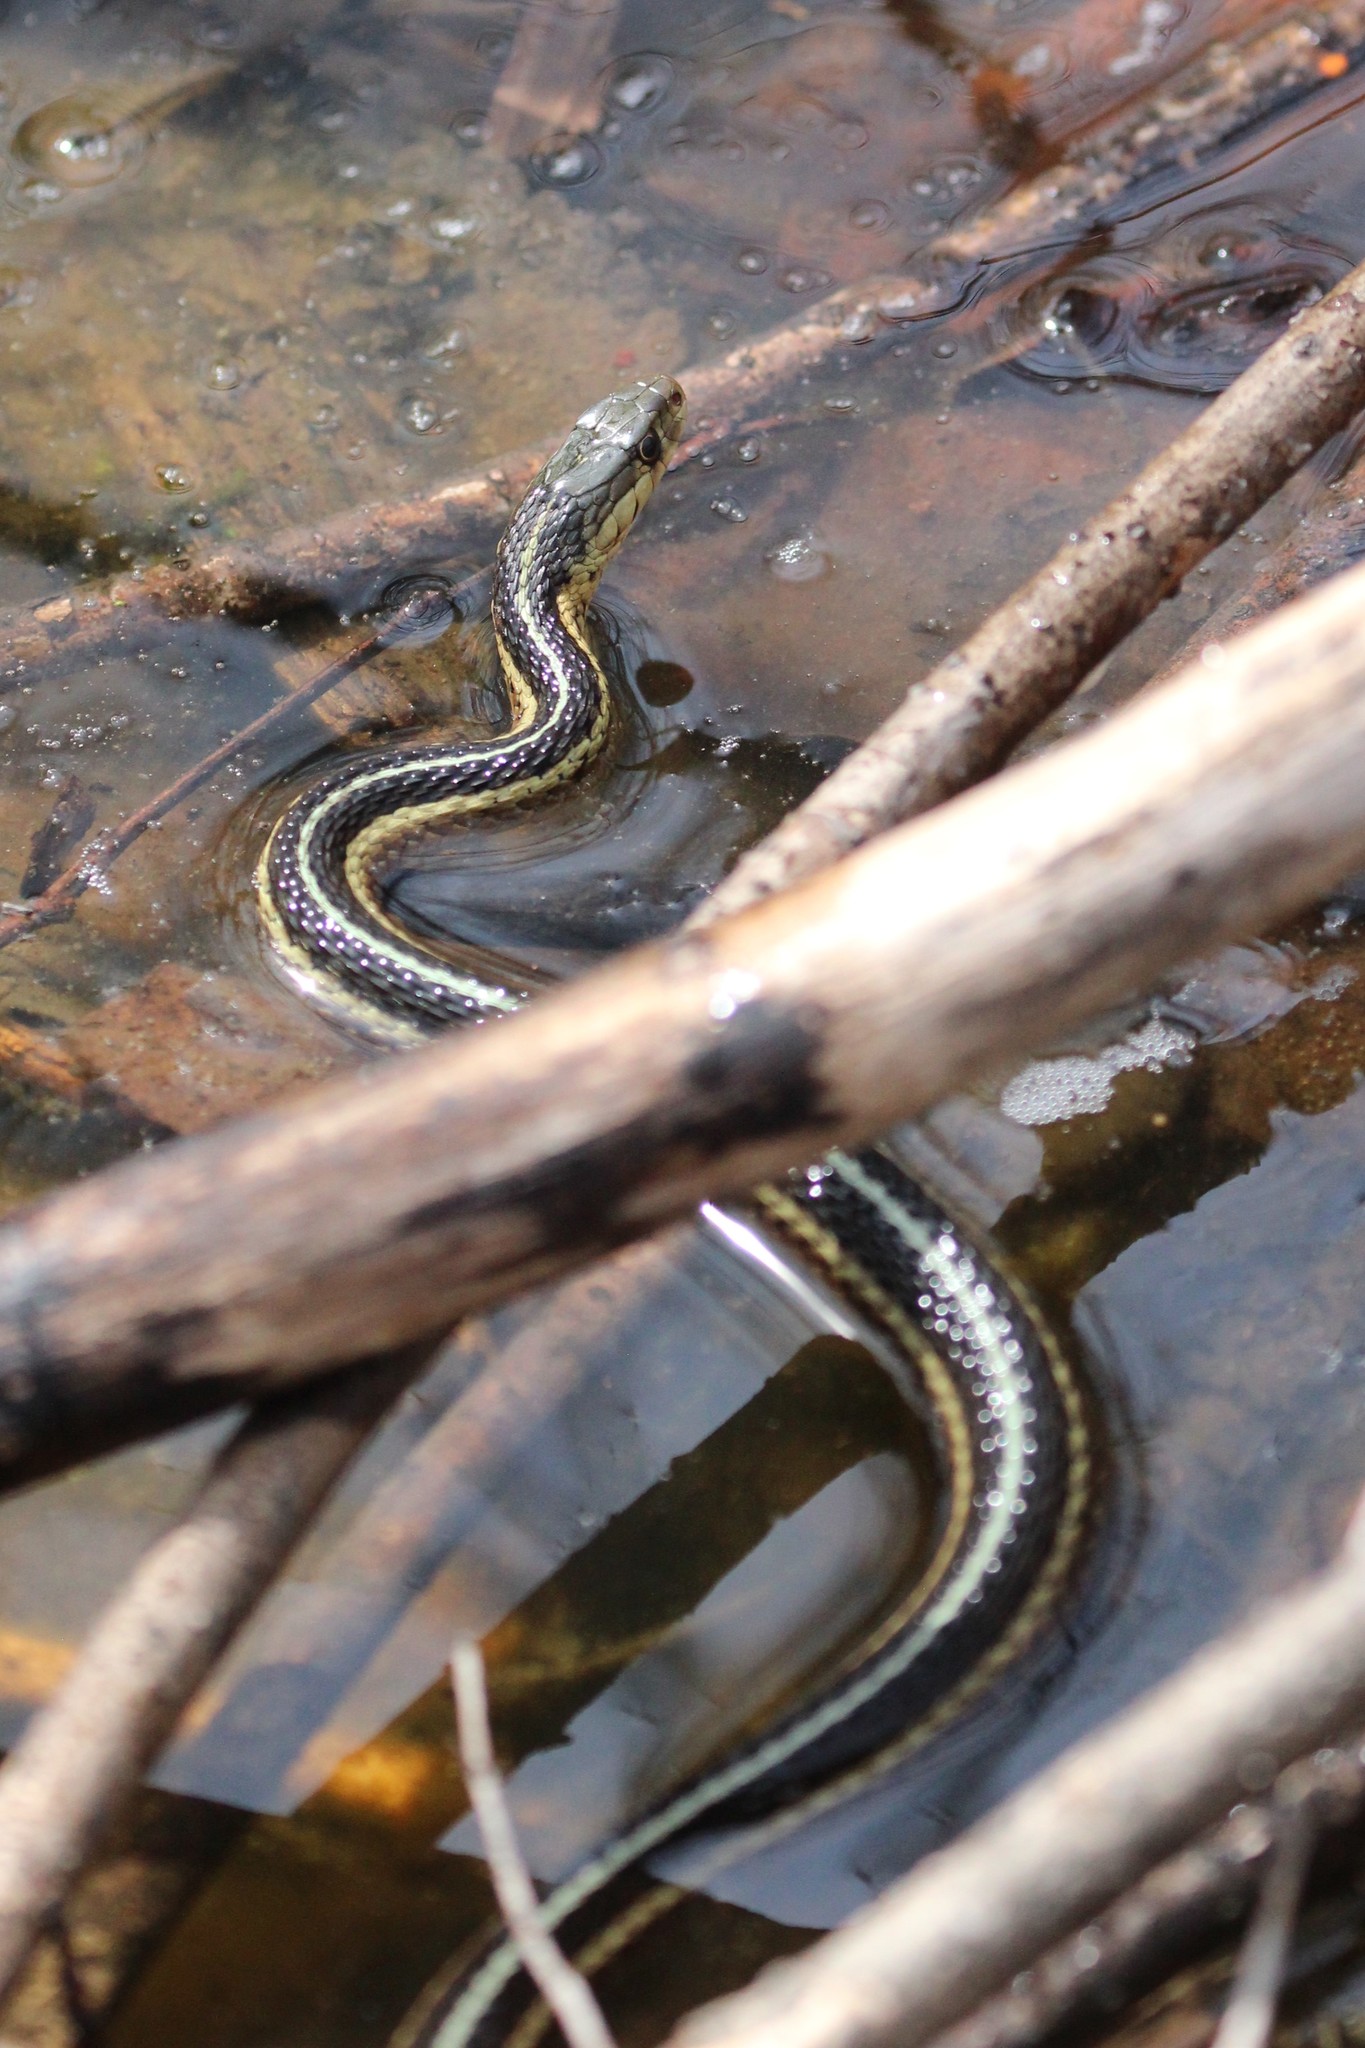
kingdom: Animalia
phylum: Chordata
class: Squamata
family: Colubridae
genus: Thamnophis
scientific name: Thamnophis sirtalis
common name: Common garter snake
